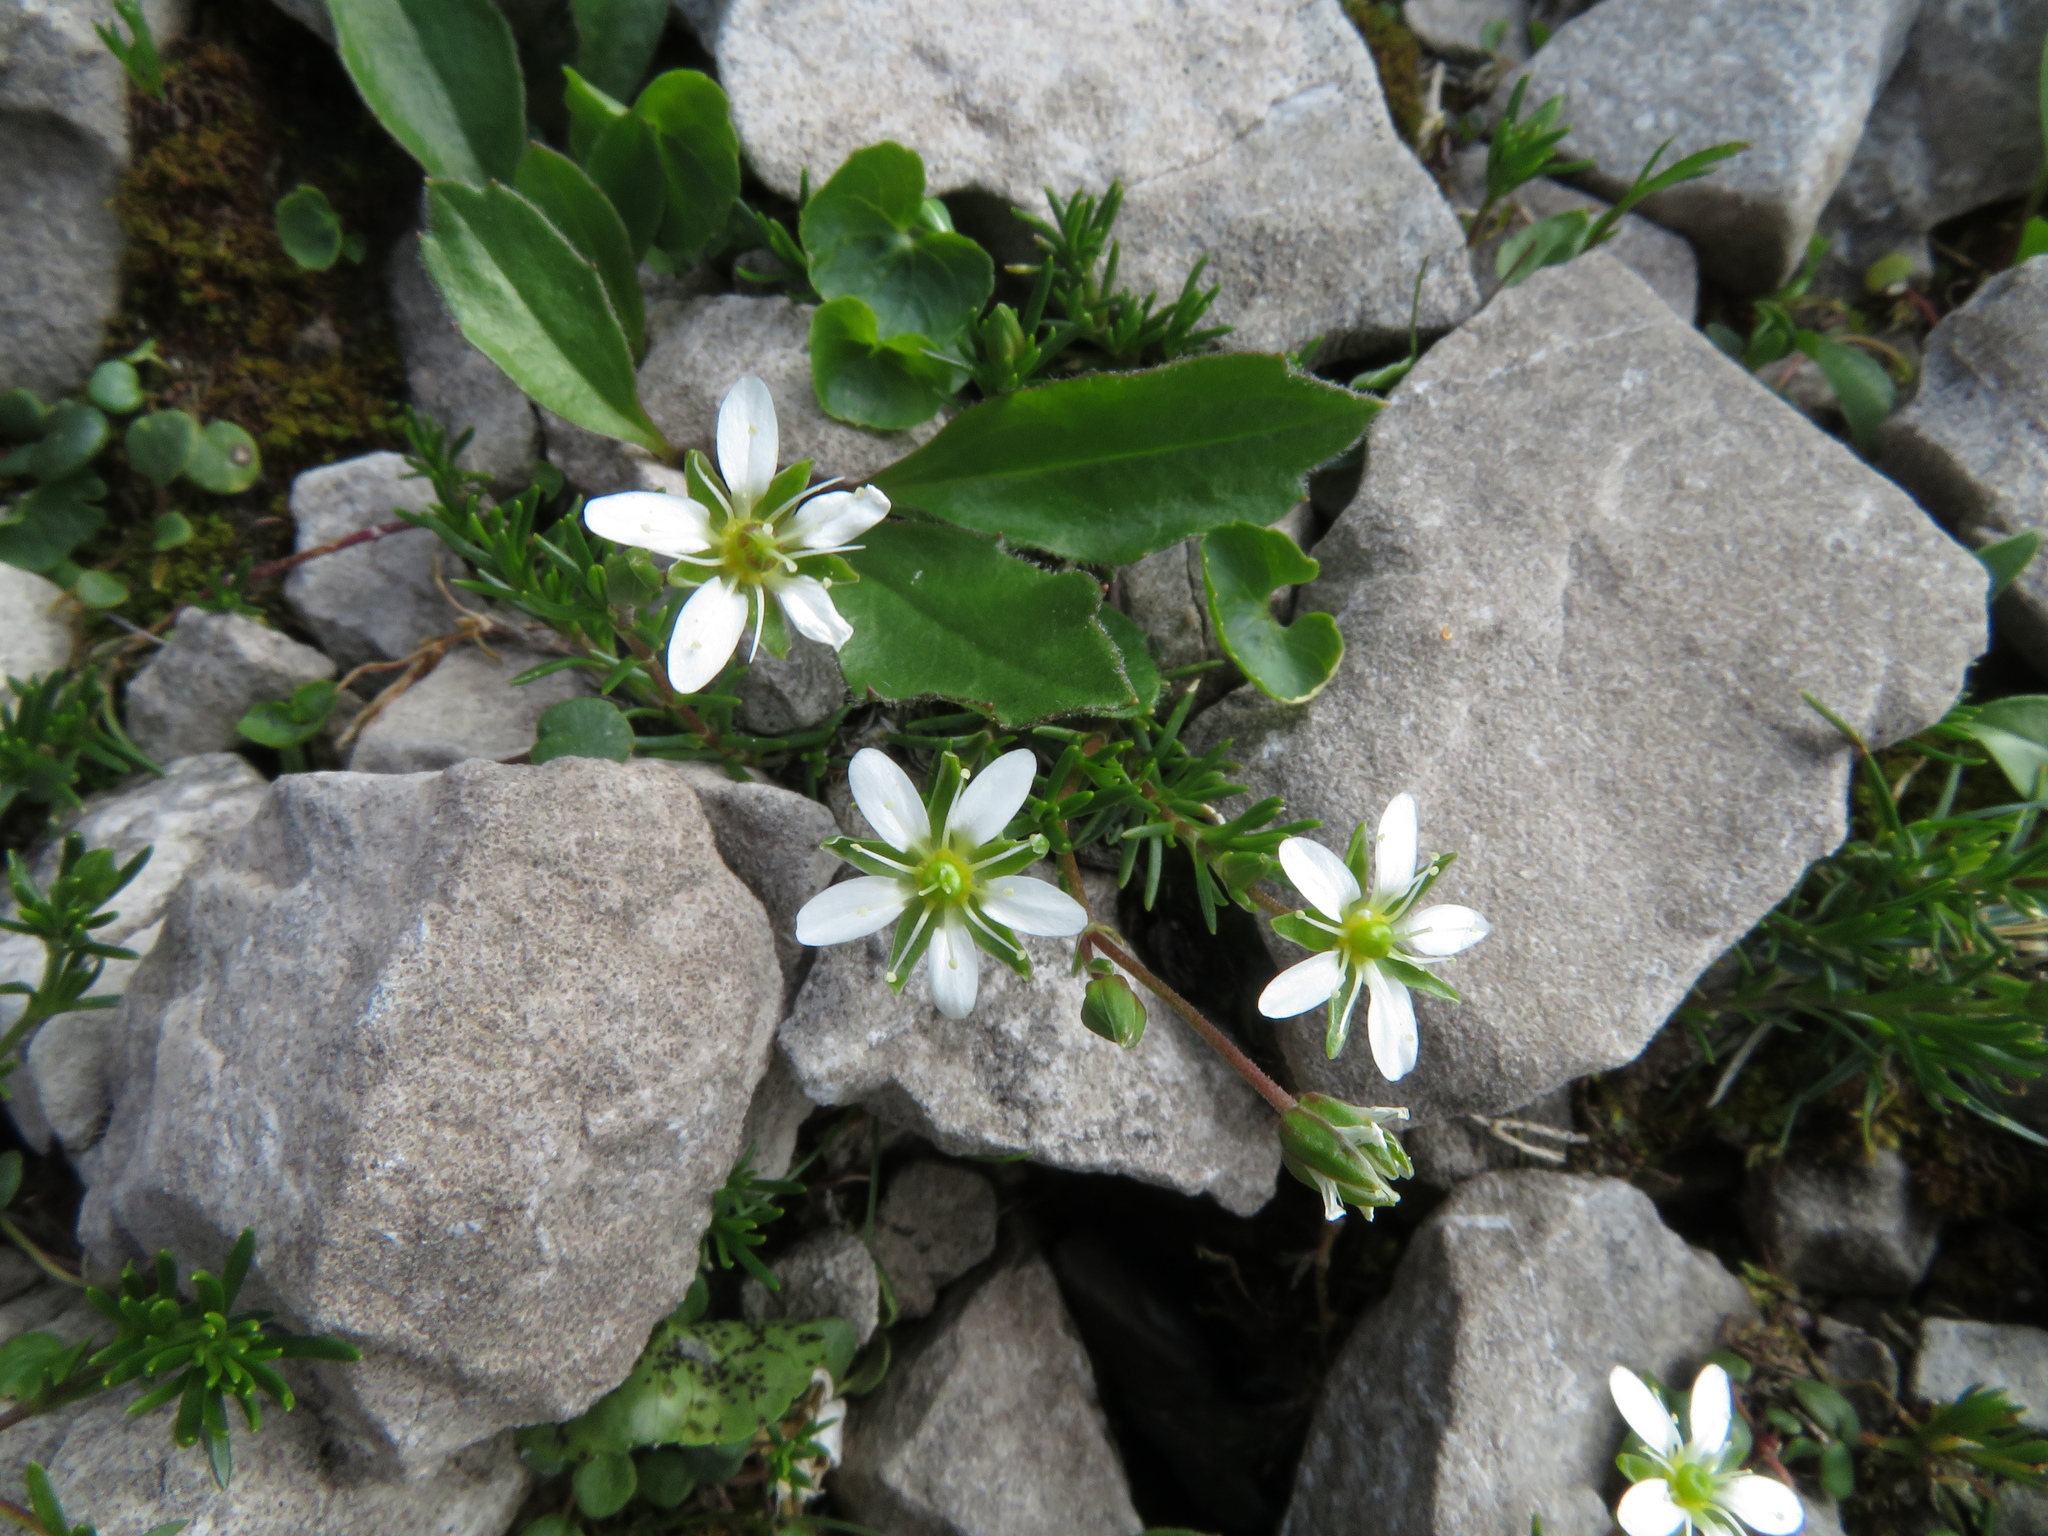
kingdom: Plantae
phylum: Tracheophyta
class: Magnoliopsida
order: Caryophyllales
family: Caryophyllaceae
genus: Moehringia
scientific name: Moehringia ciliata
